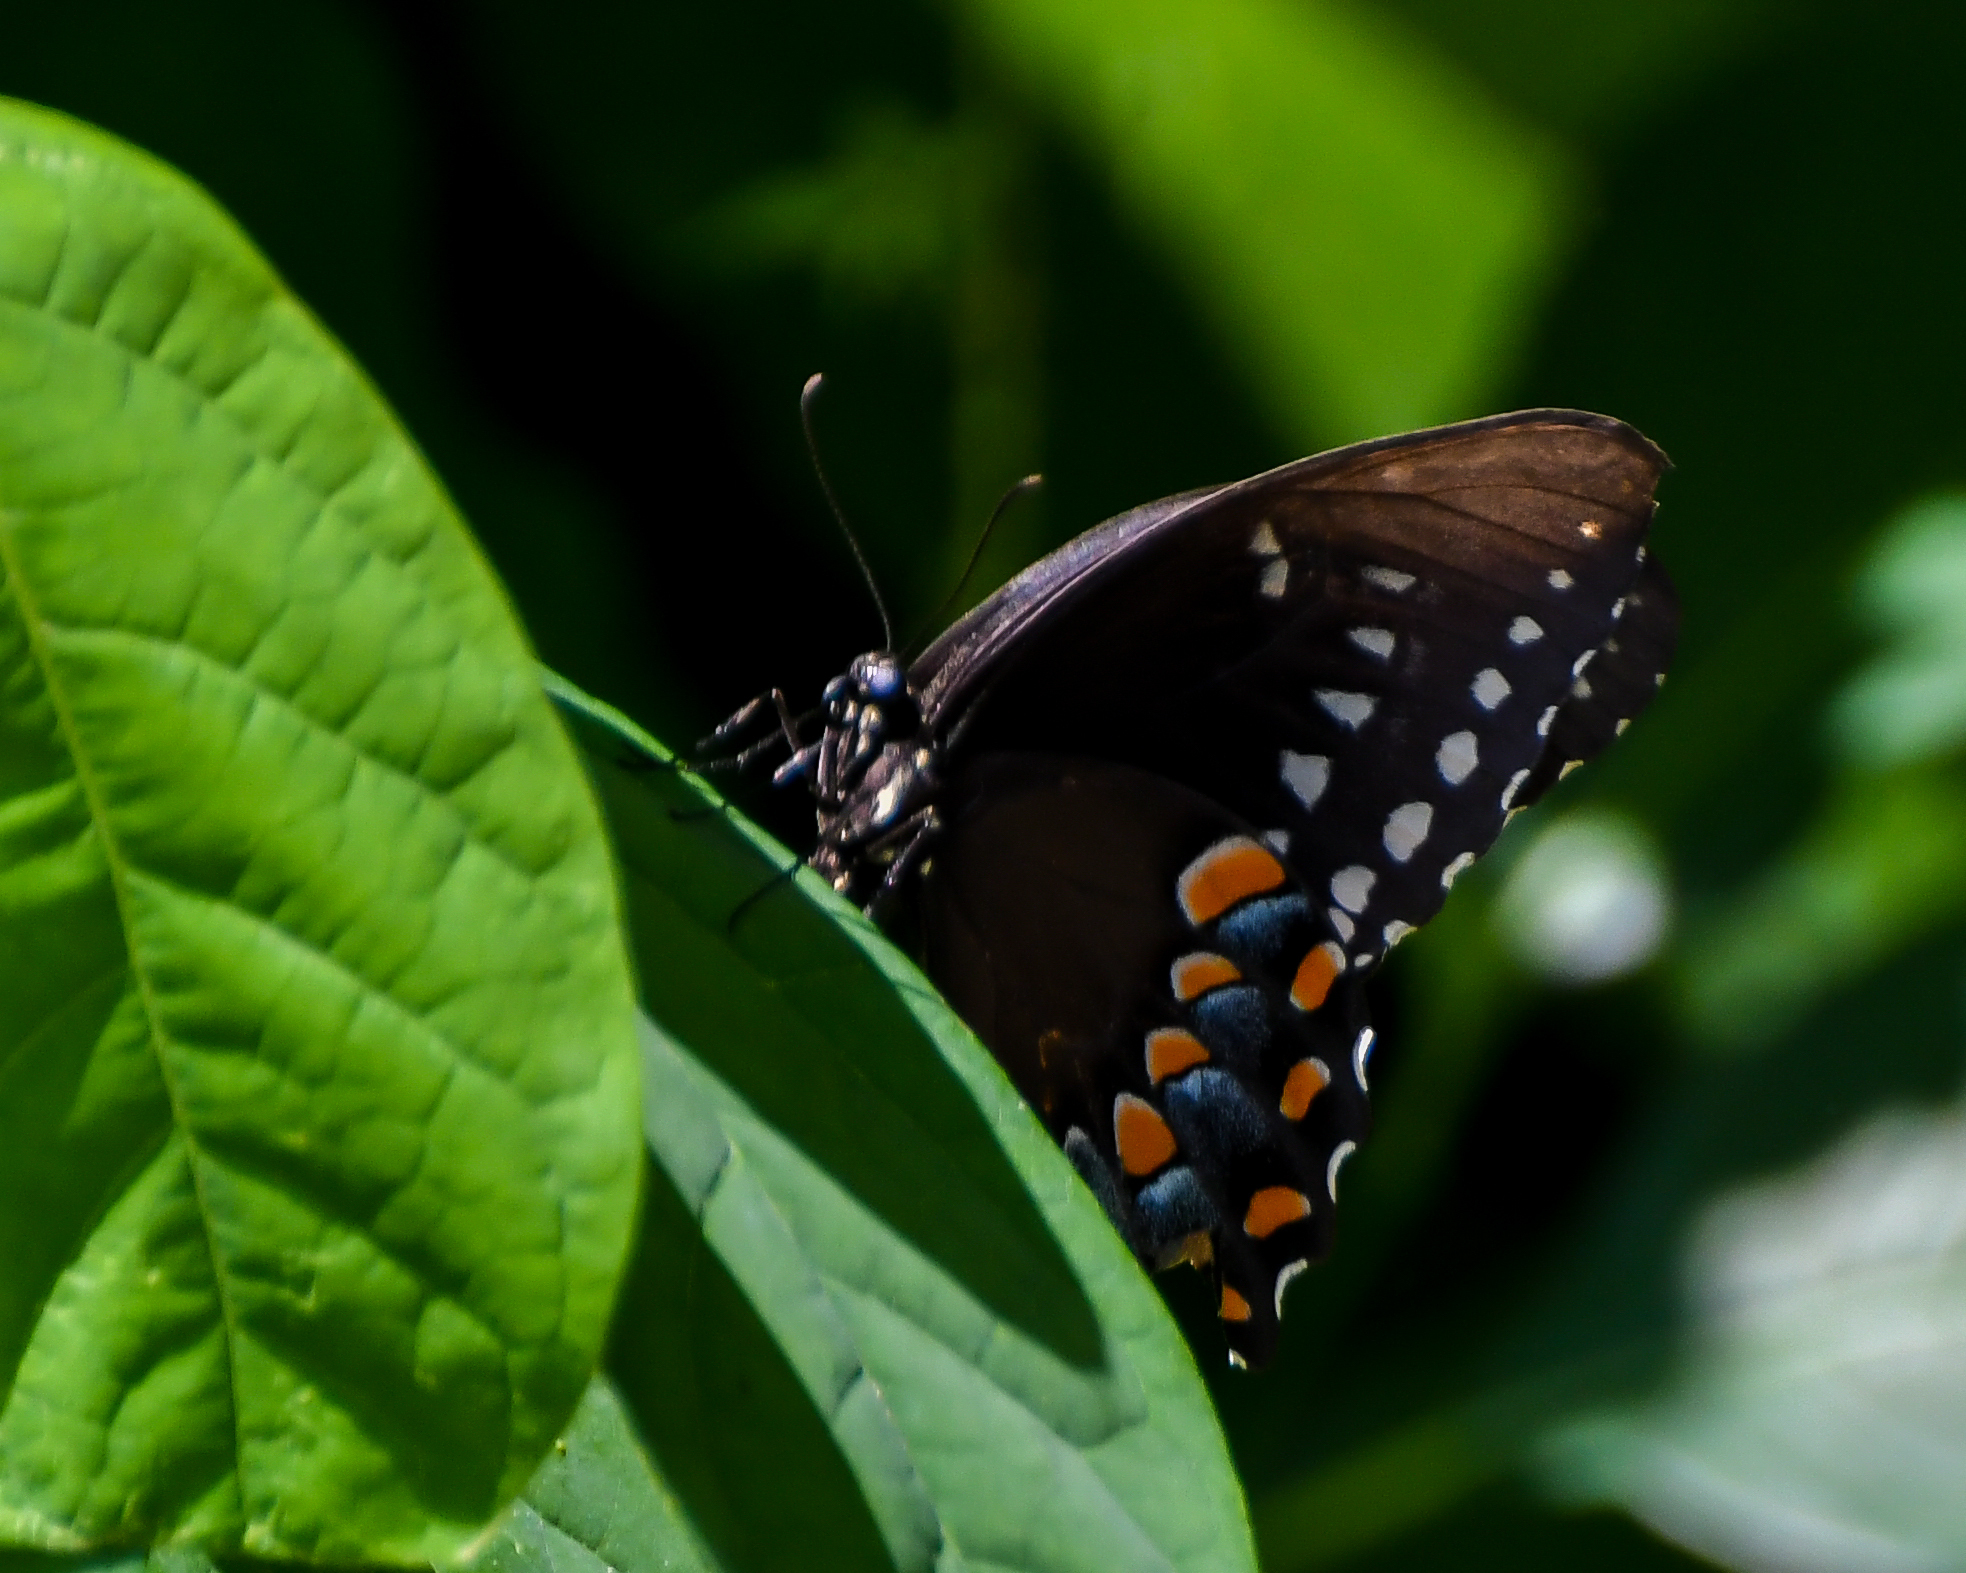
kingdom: Animalia
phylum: Arthropoda
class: Insecta
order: Lepidoptera
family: Papilionidae
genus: Papilio
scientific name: Papilio troilus
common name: Spicebush swallowtail
